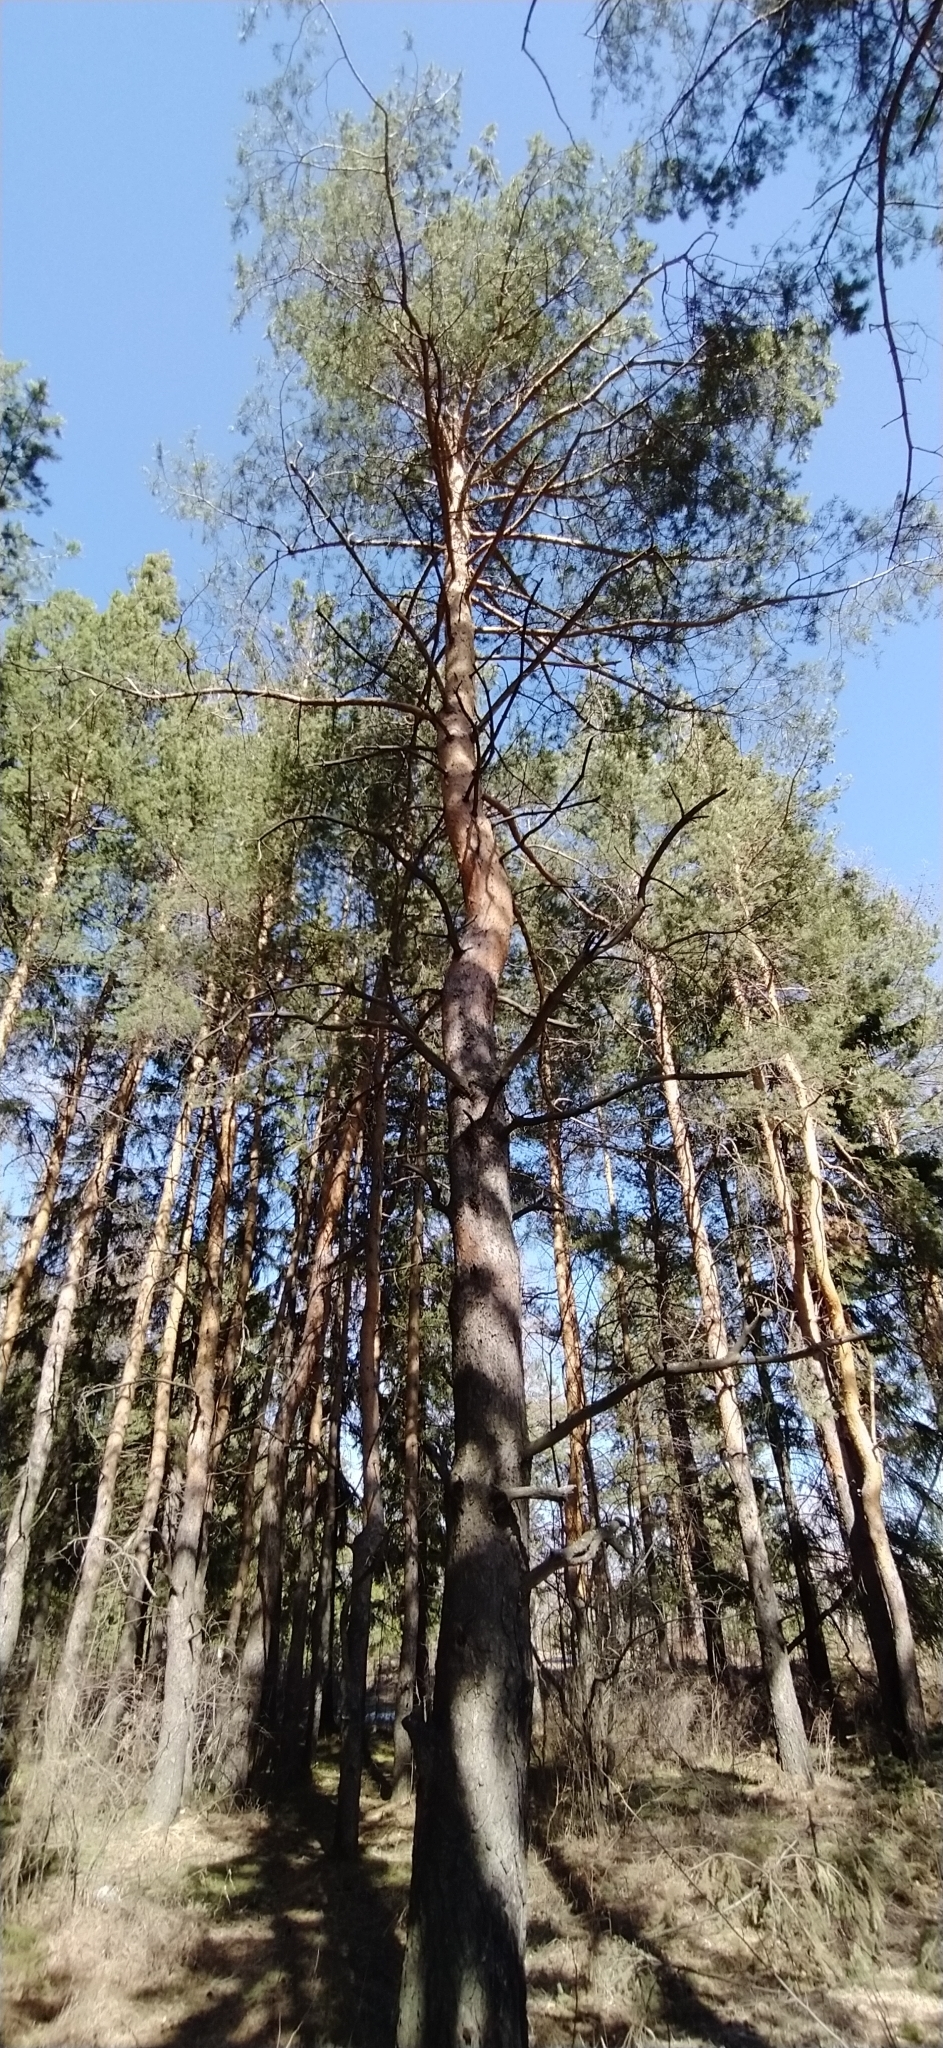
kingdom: Plantae
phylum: Tracheophyta
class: Pinopsida
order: Pinales
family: Pinaceae
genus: Pinus
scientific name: Pinus sylvestris
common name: Scots pine
